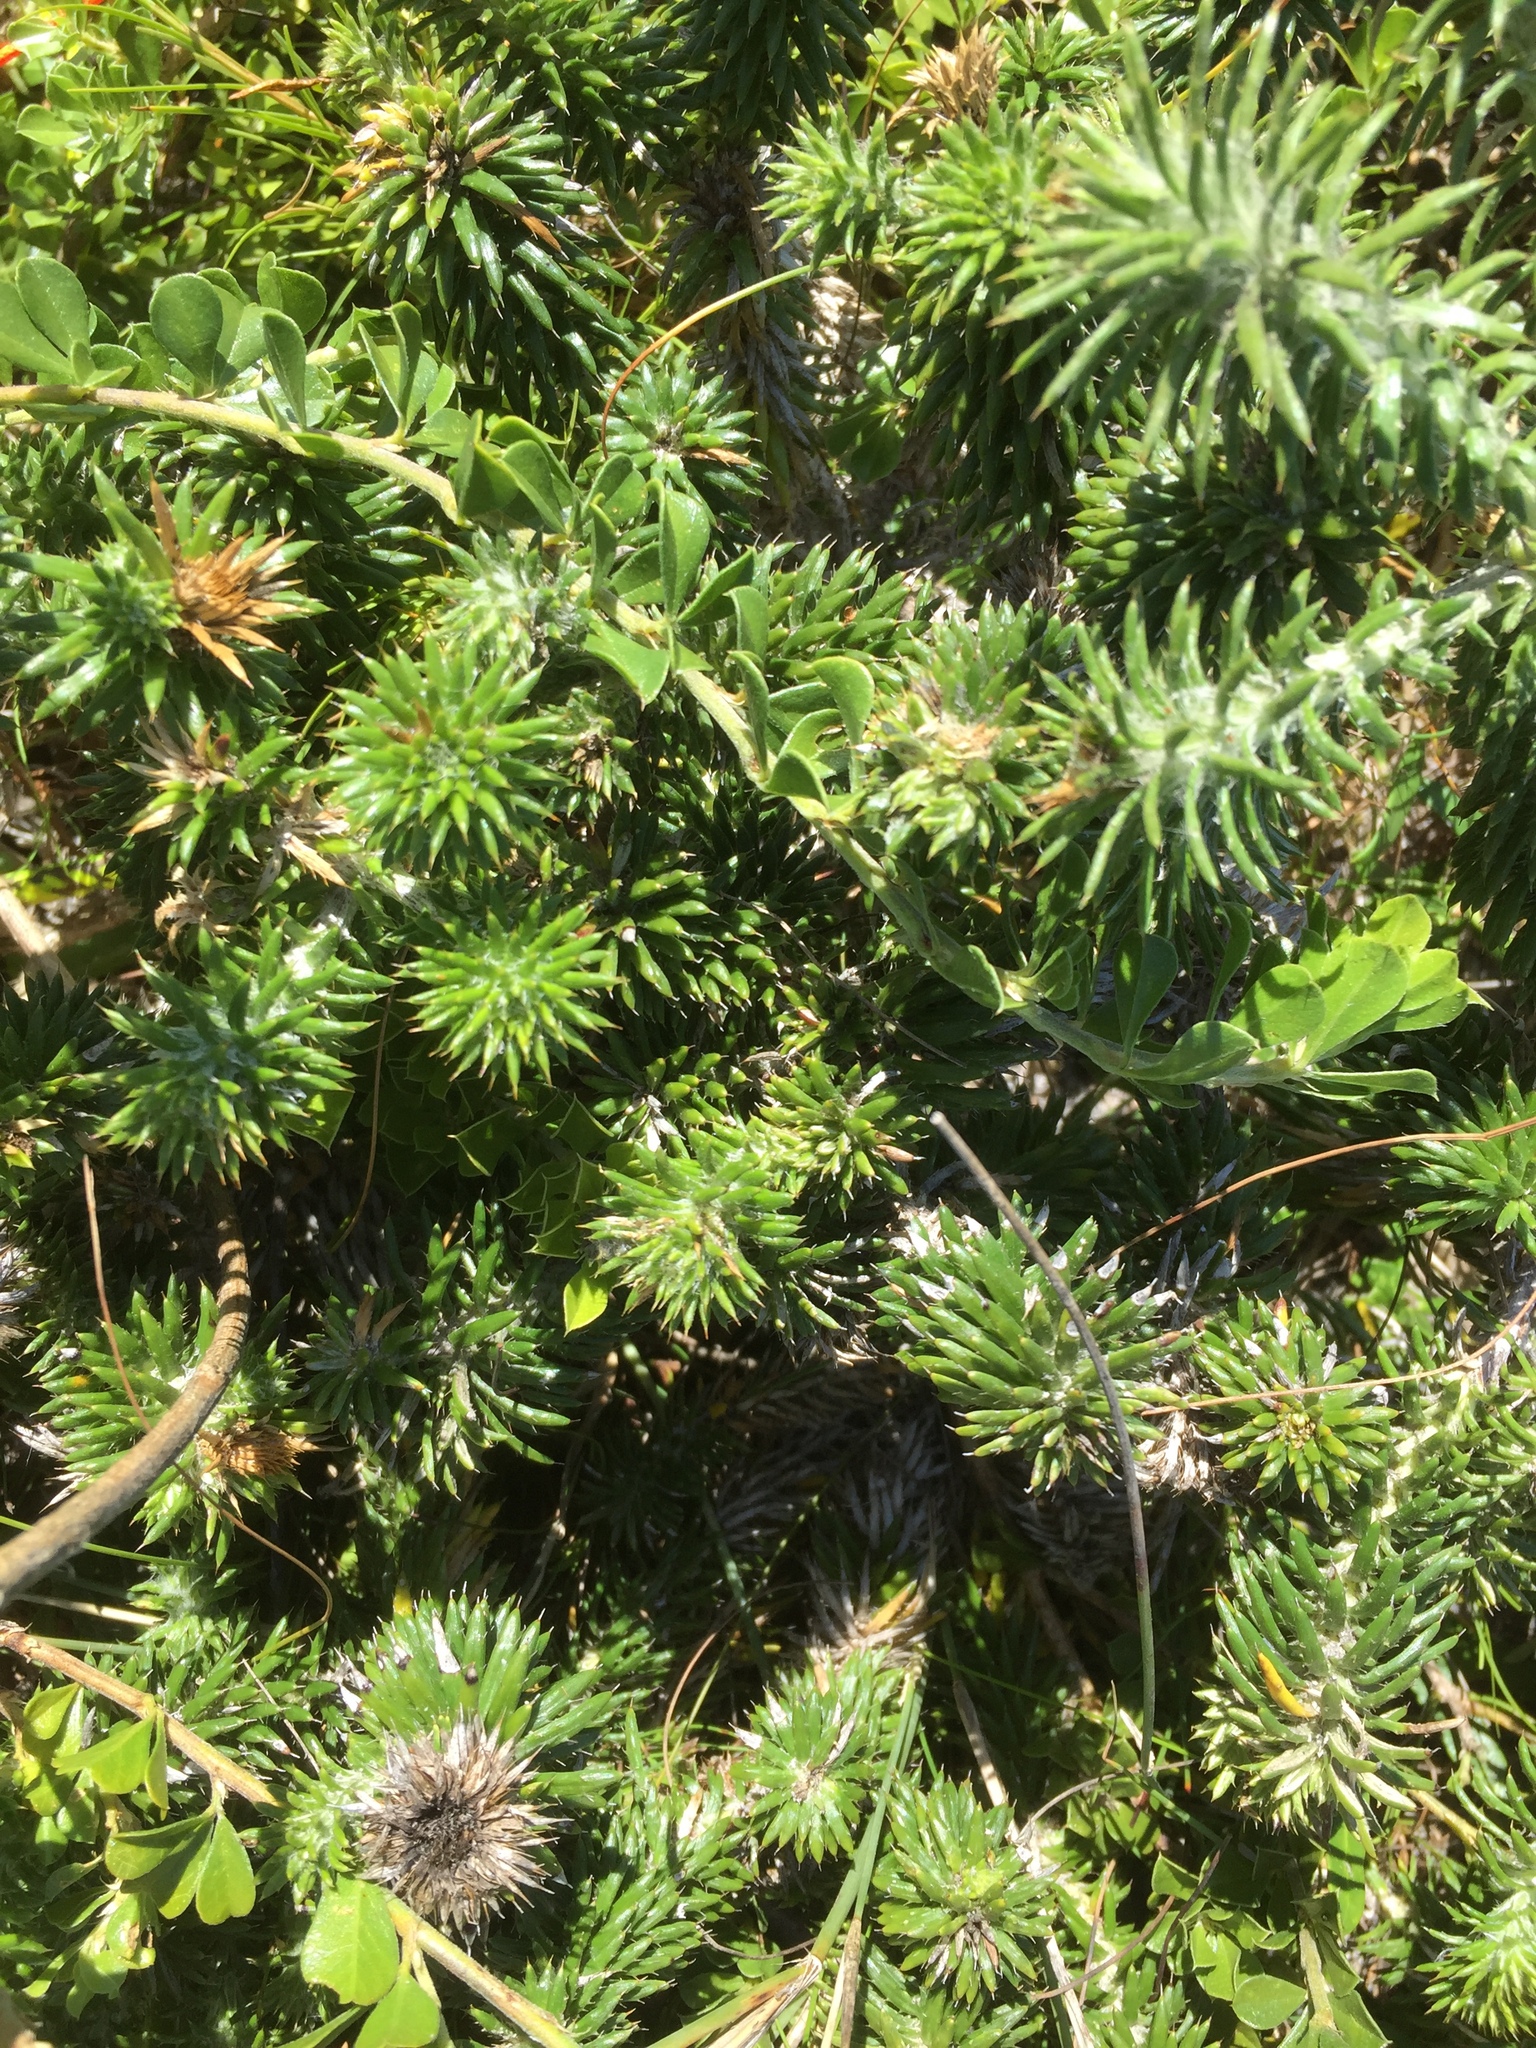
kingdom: Plantae
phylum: Tracheophyta
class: Magnoliopsida
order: Asterales
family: Asteraceae
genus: Cullumia
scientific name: Cullumia squarrosa
